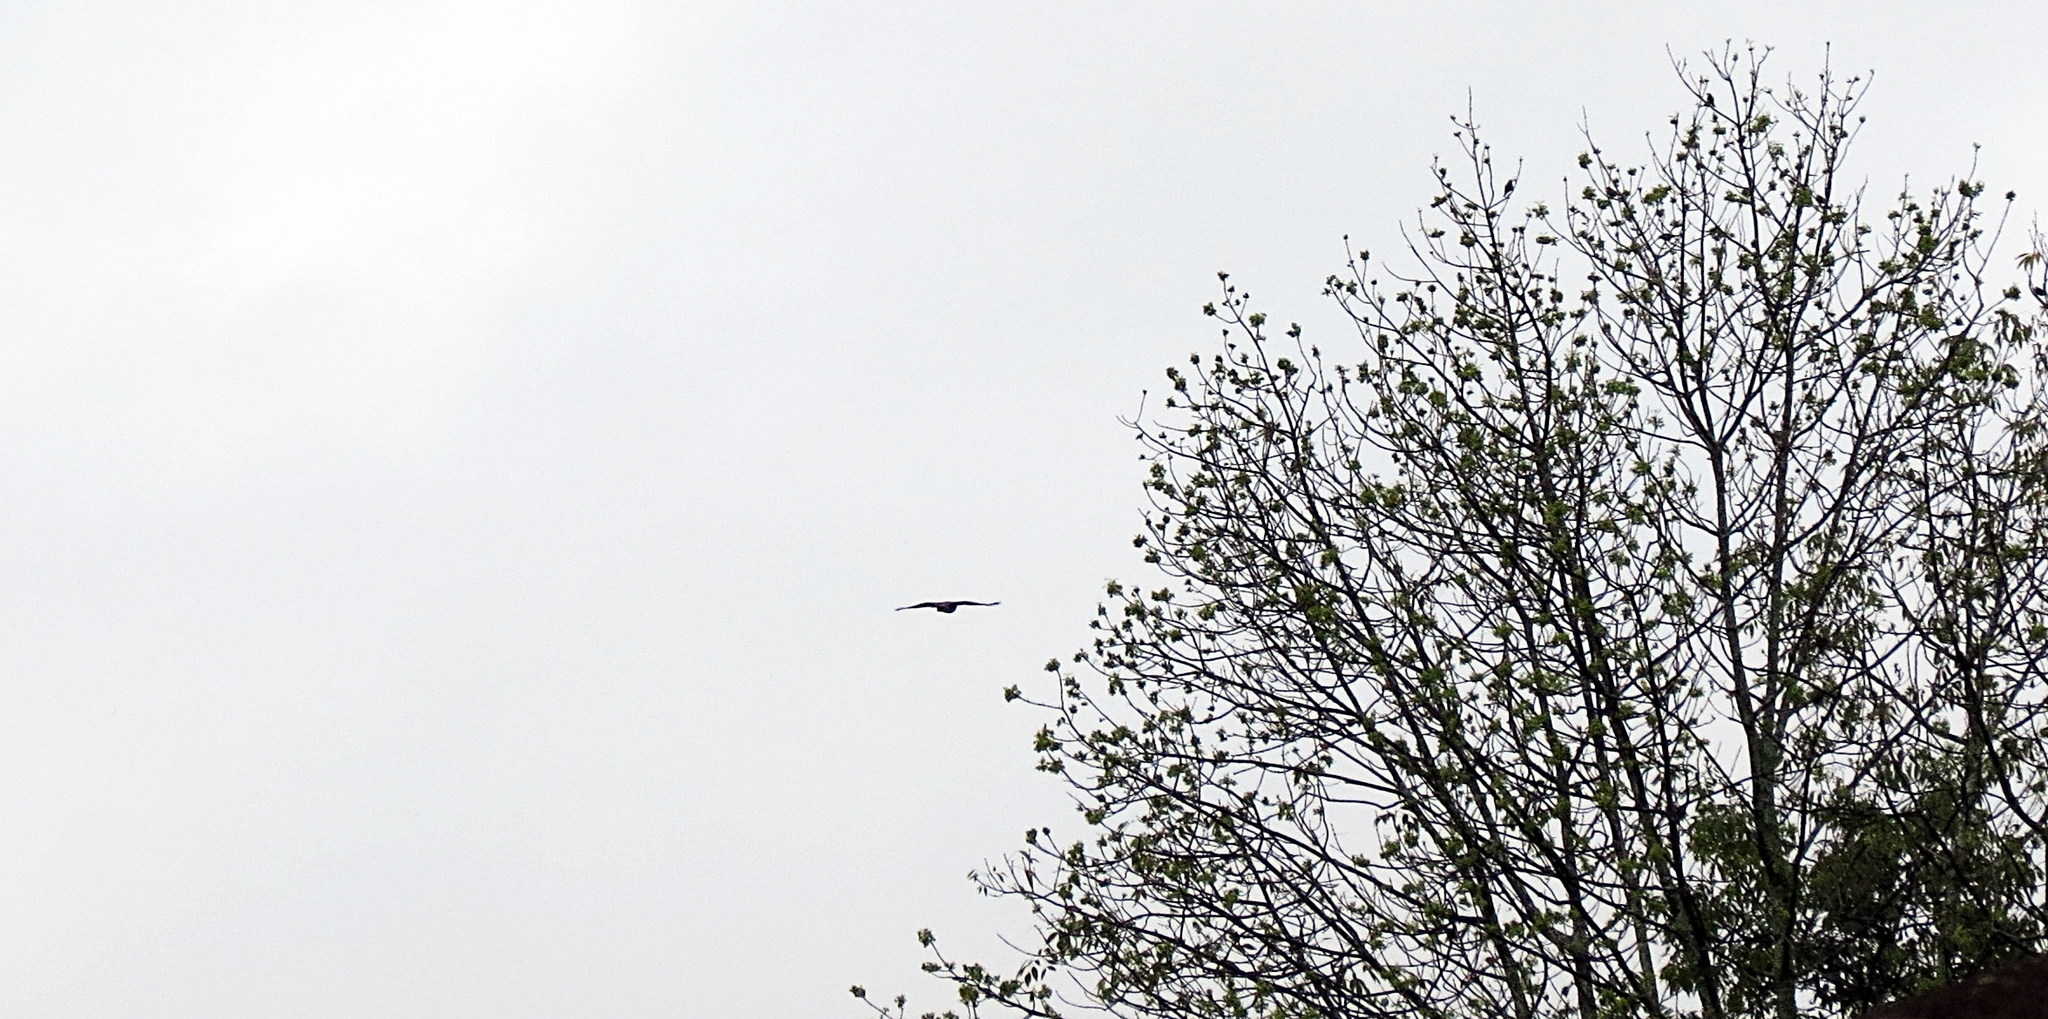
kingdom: Animalia
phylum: Chordata
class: Aves
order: Accipitriformes
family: Accipitridae
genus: Rupornis
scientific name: Rupornis magnirostris
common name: Roadside hawk
